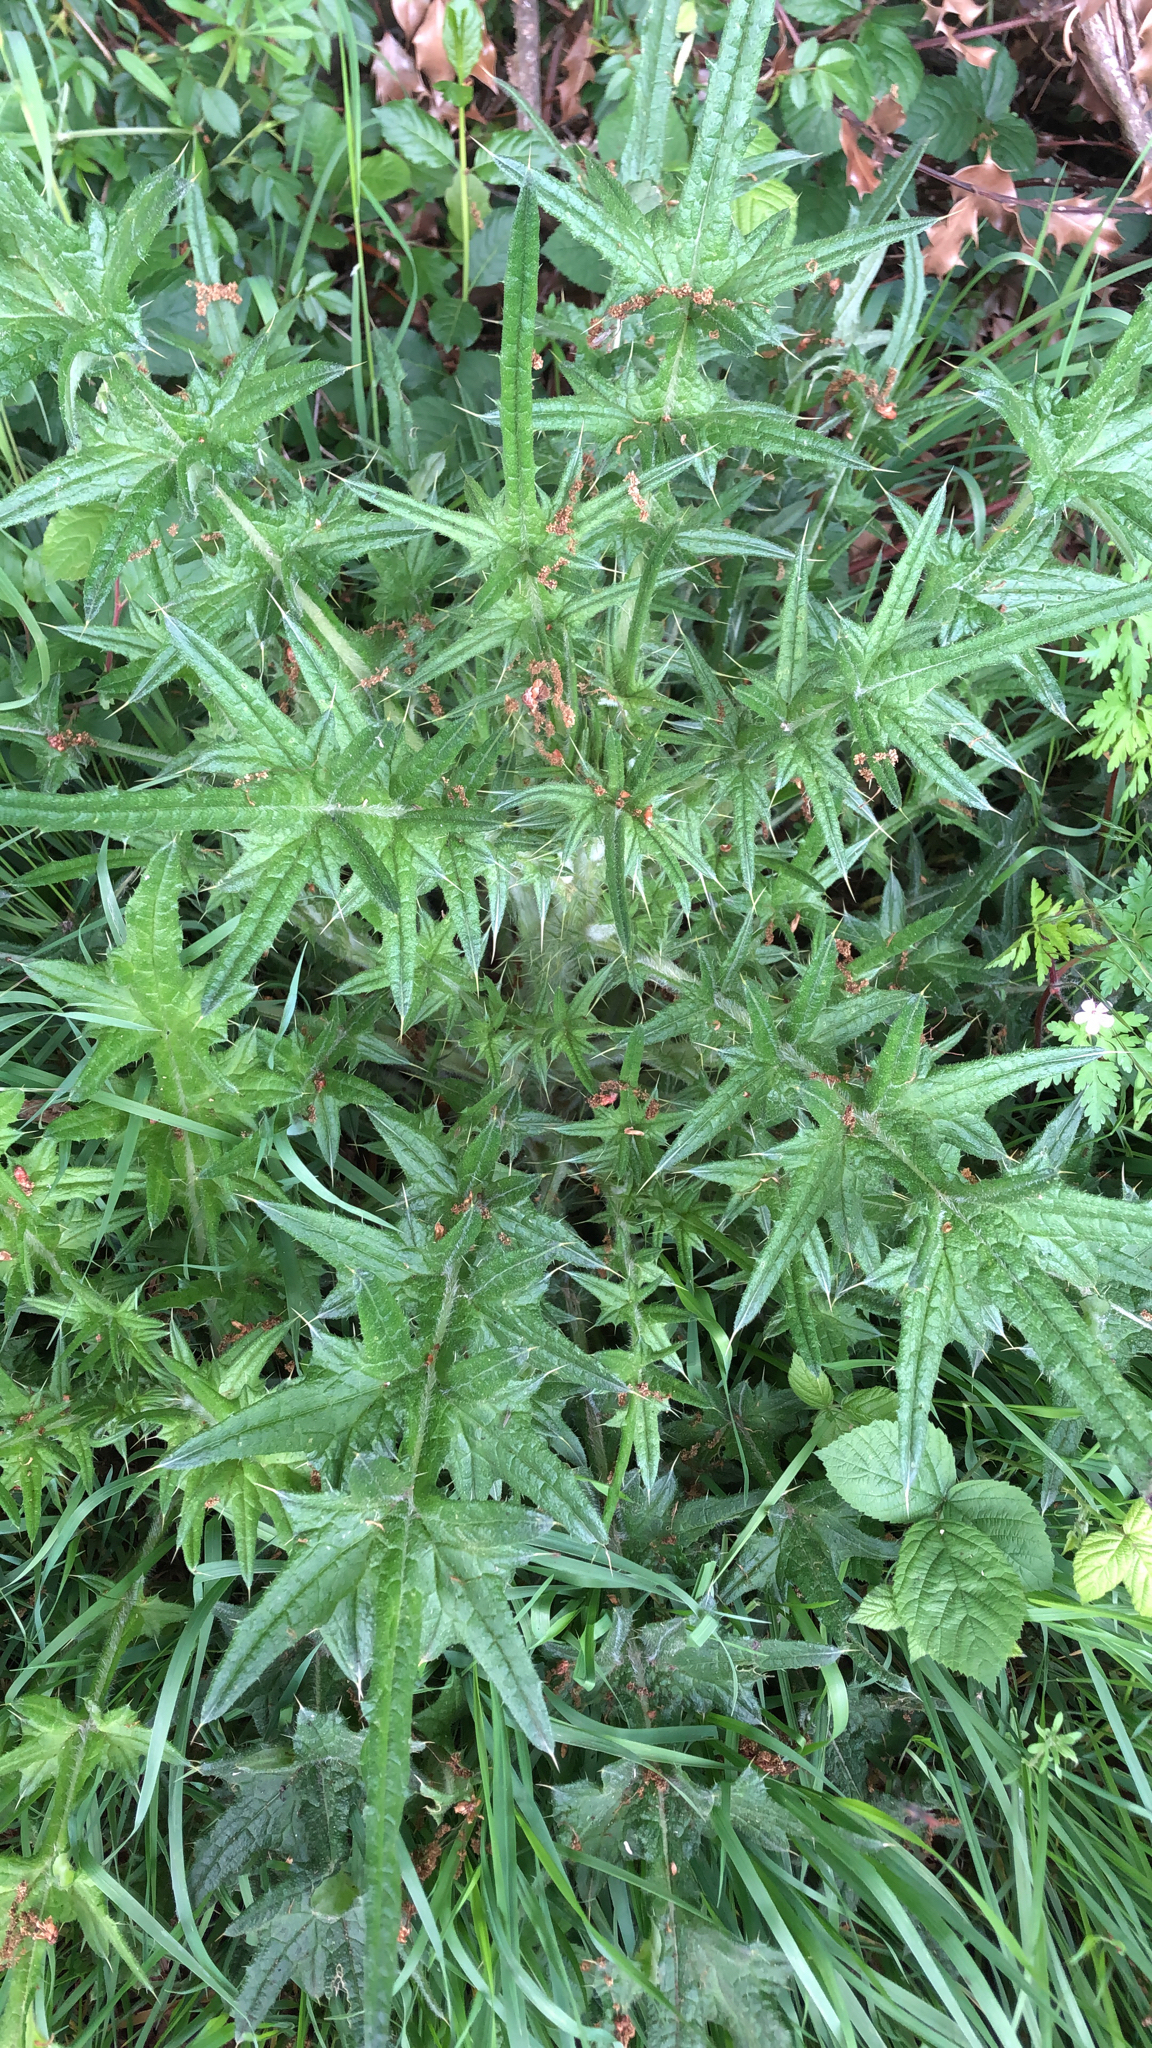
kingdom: Plantae
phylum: Tracheophyta
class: Magnoliopsida
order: Asterales
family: Asteraceae
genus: Cirsium
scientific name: Cirsium vulgare
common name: Bull thistle
